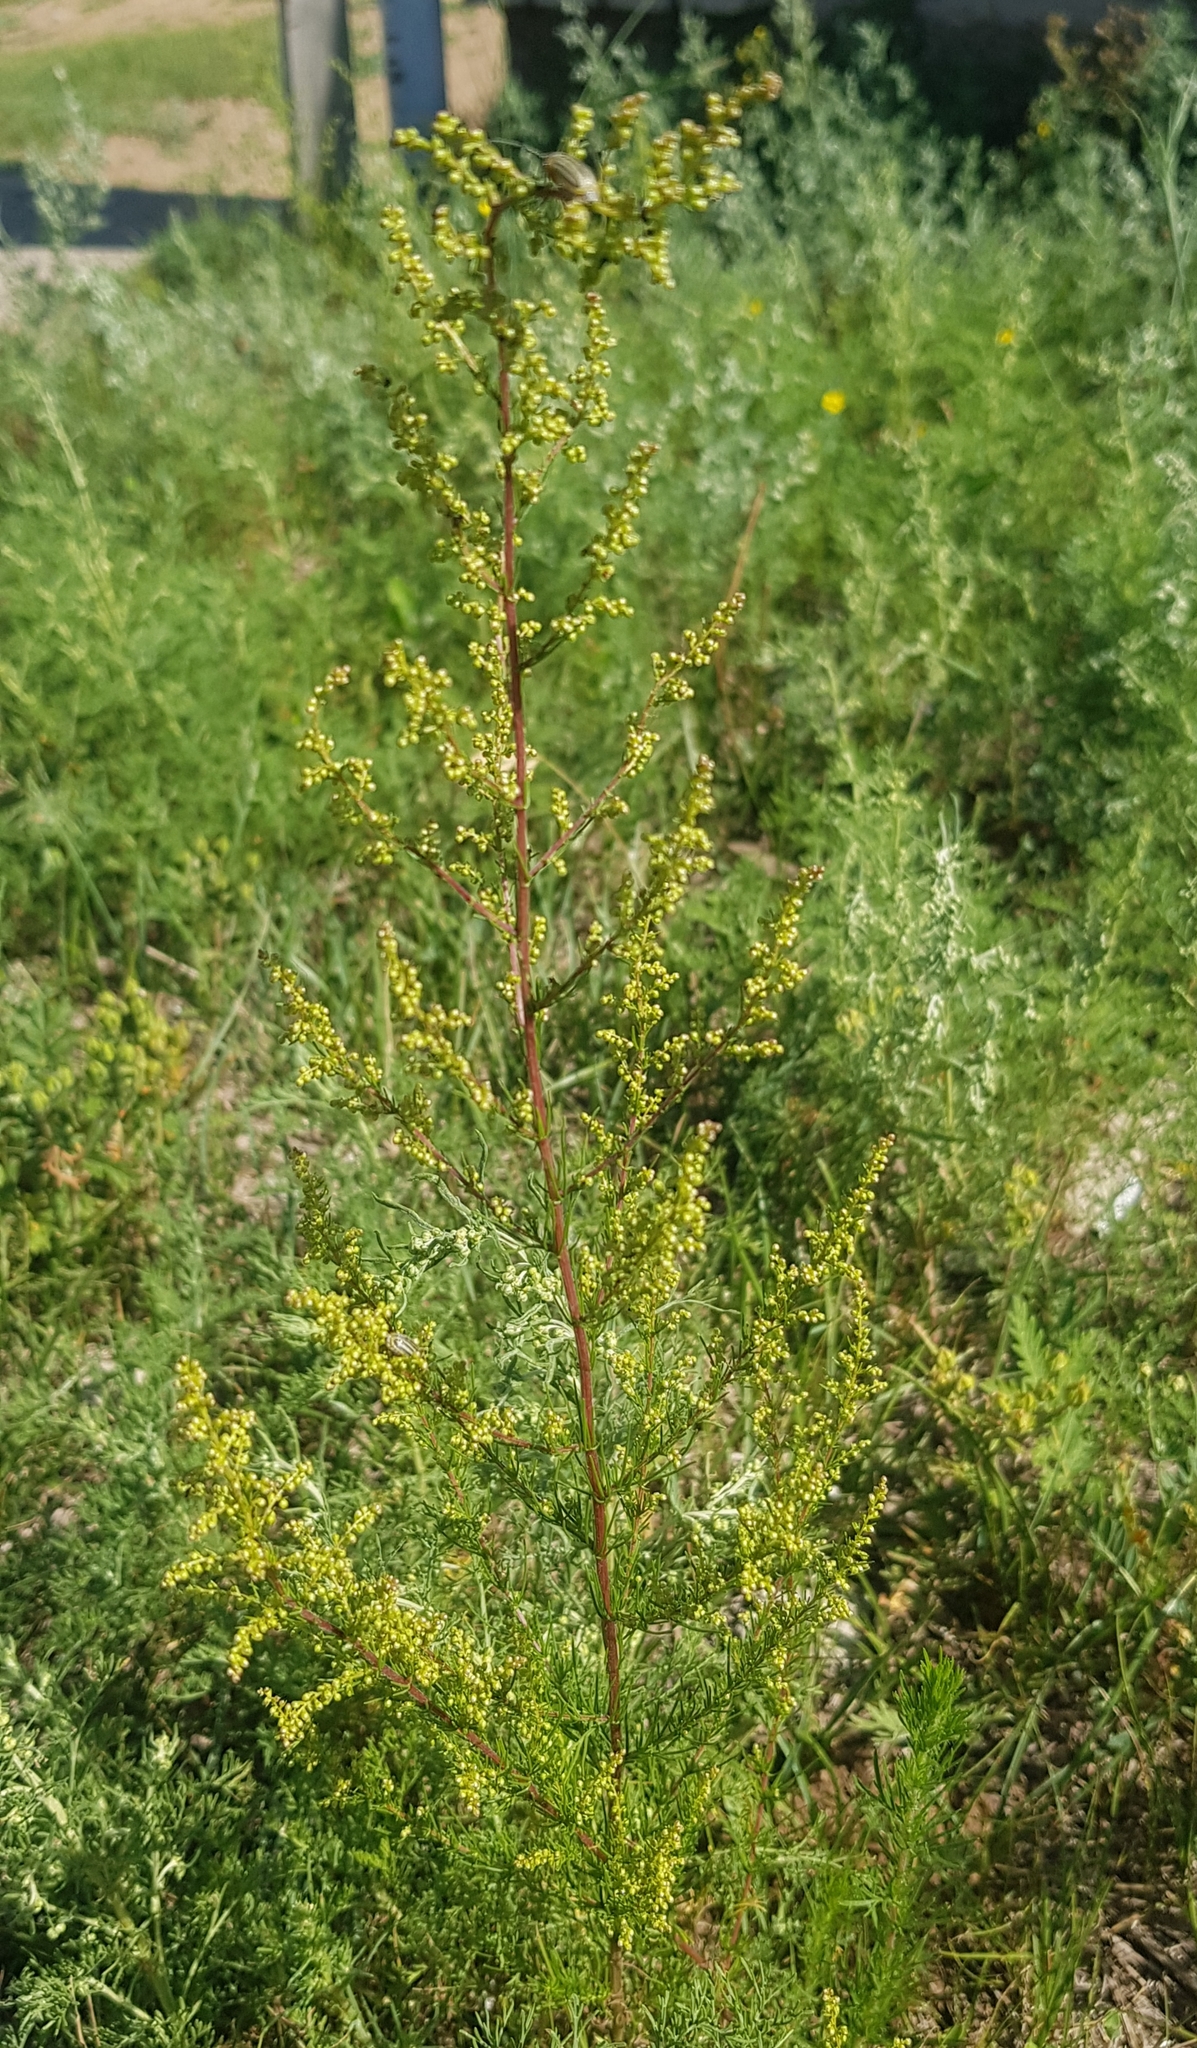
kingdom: Plantae
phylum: Tracheophyta
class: Magnoliopsida
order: Asterales
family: Asteraceae
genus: Artemisia
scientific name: Artemisia scoparia
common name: Redstem wormwood
